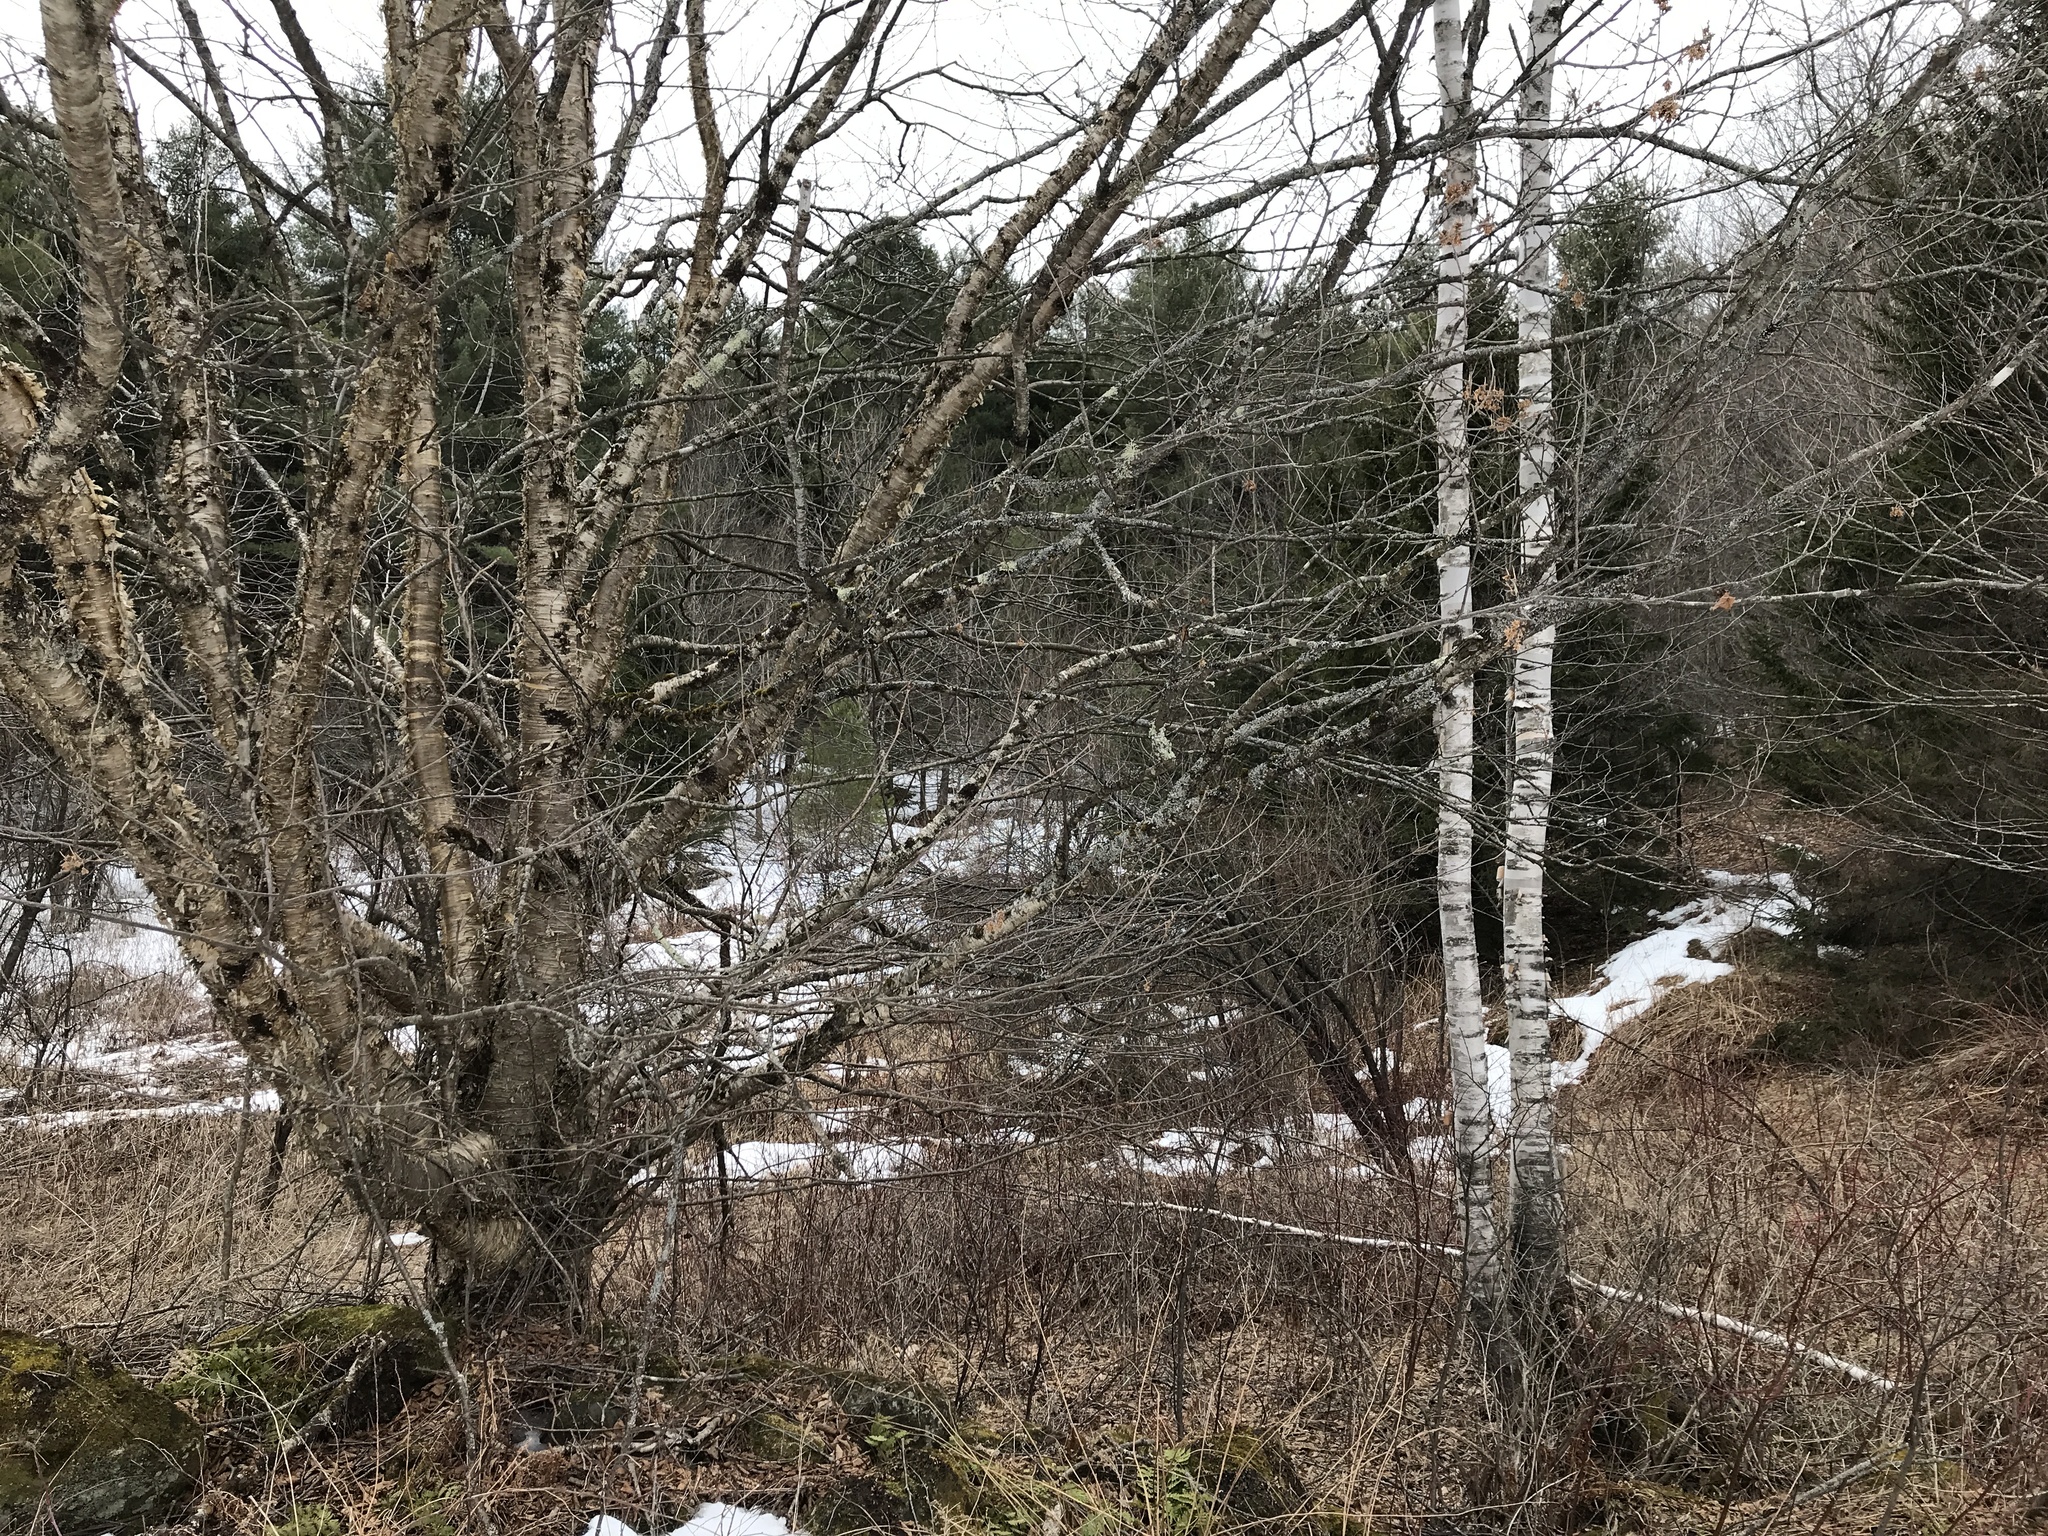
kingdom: Plantae
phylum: Tracheophyta
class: Magnoliopsida
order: Fagales
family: Betulaceae
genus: Betula
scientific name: Betula papyrifera
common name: Paper birch
